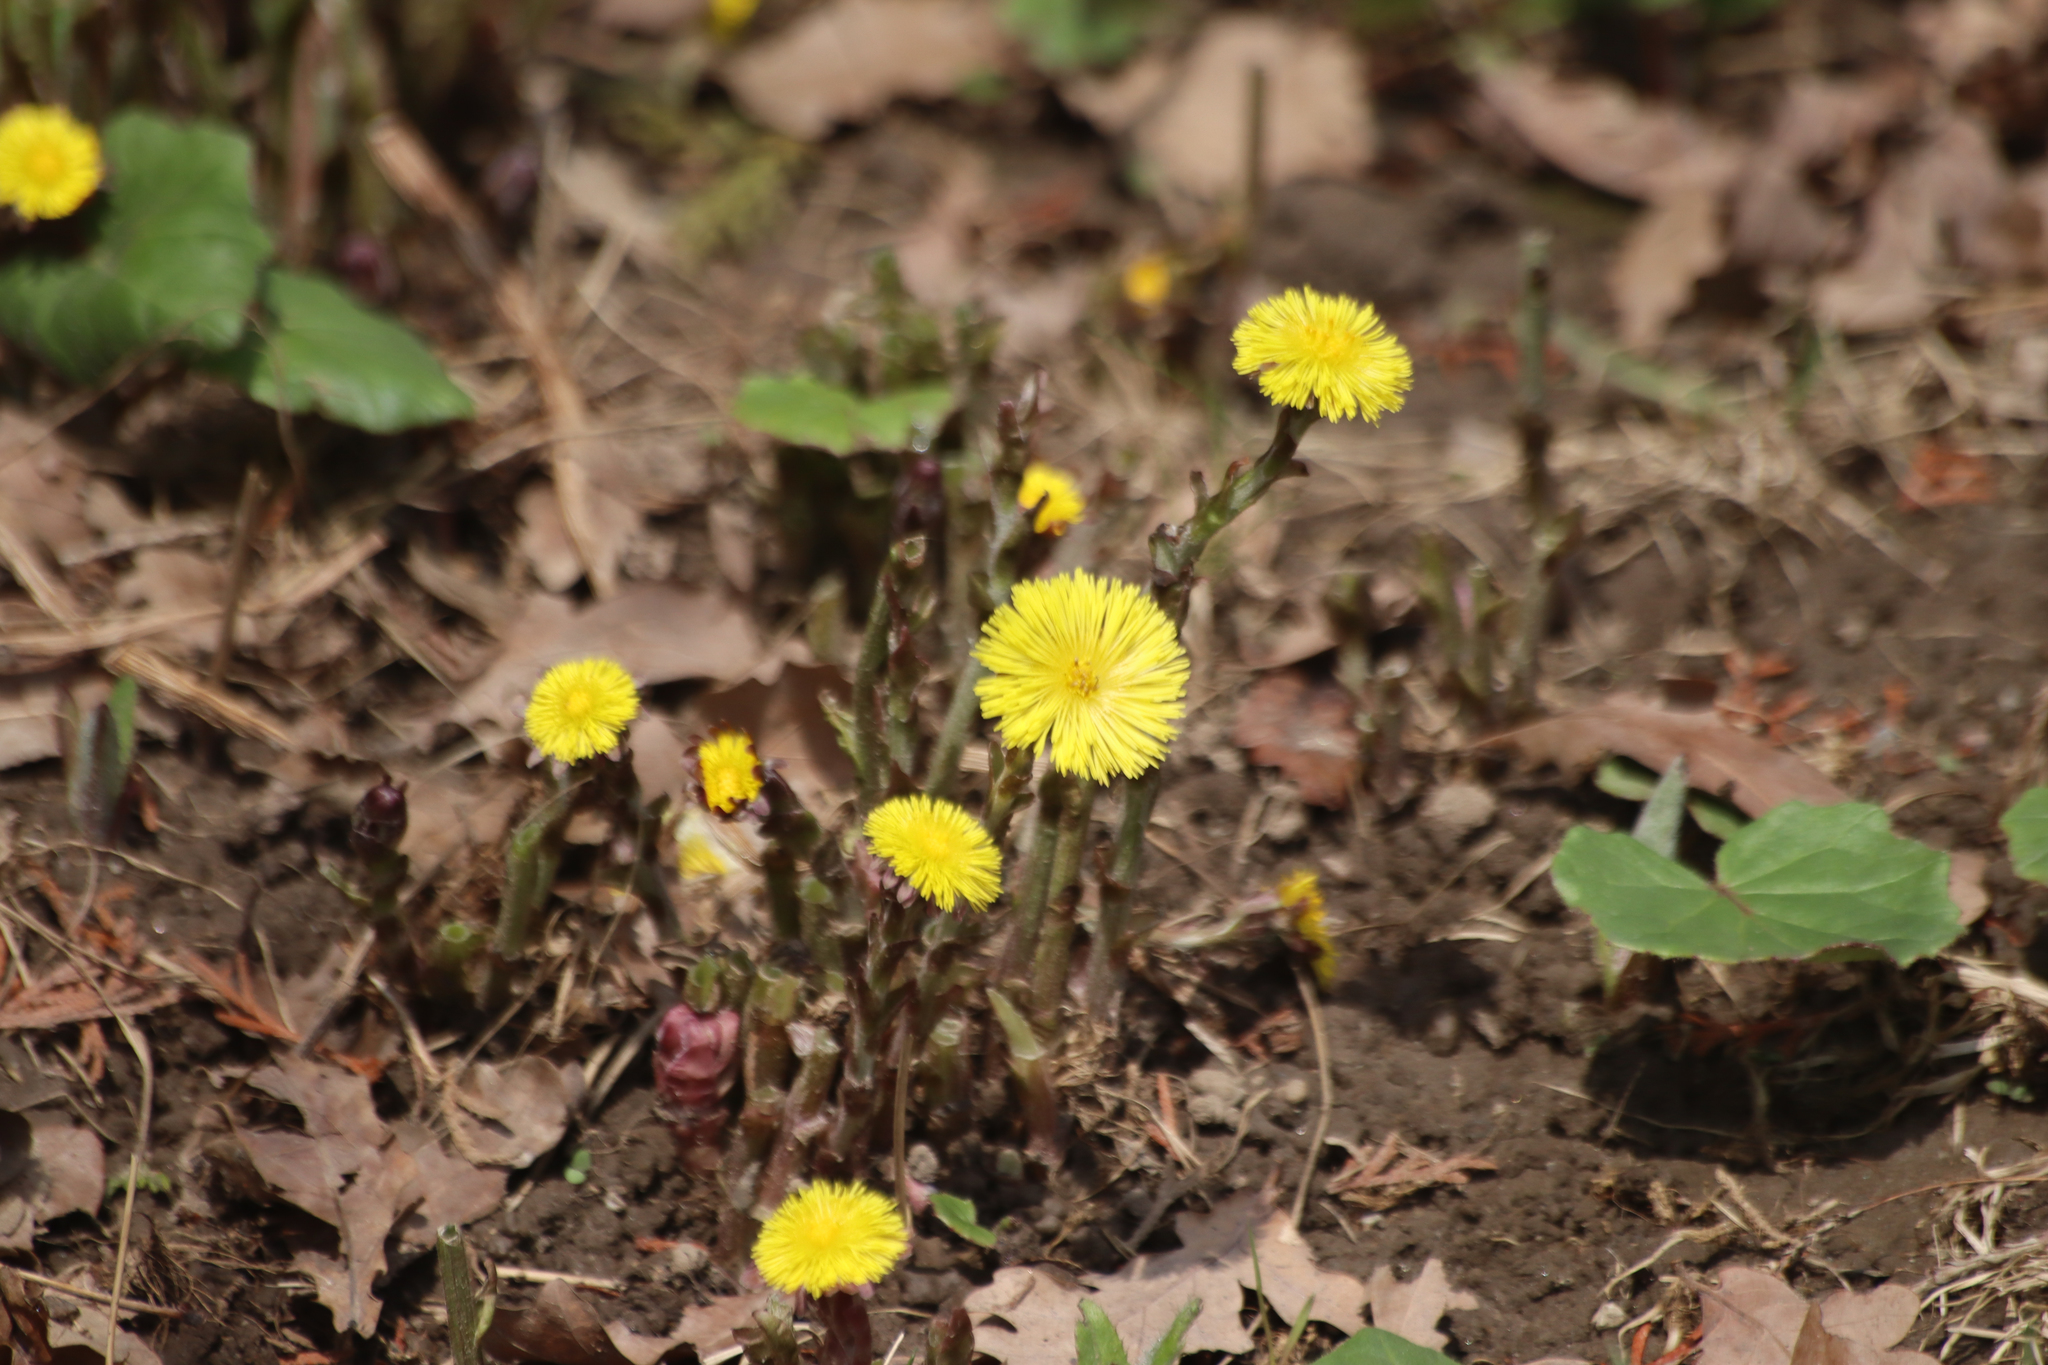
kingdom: Plantae
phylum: Tracheophyta
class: Magnoliopsida
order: Asterales
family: Asteraceae
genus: Tussilago
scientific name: Tussilago farfara
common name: Coltsfoot
